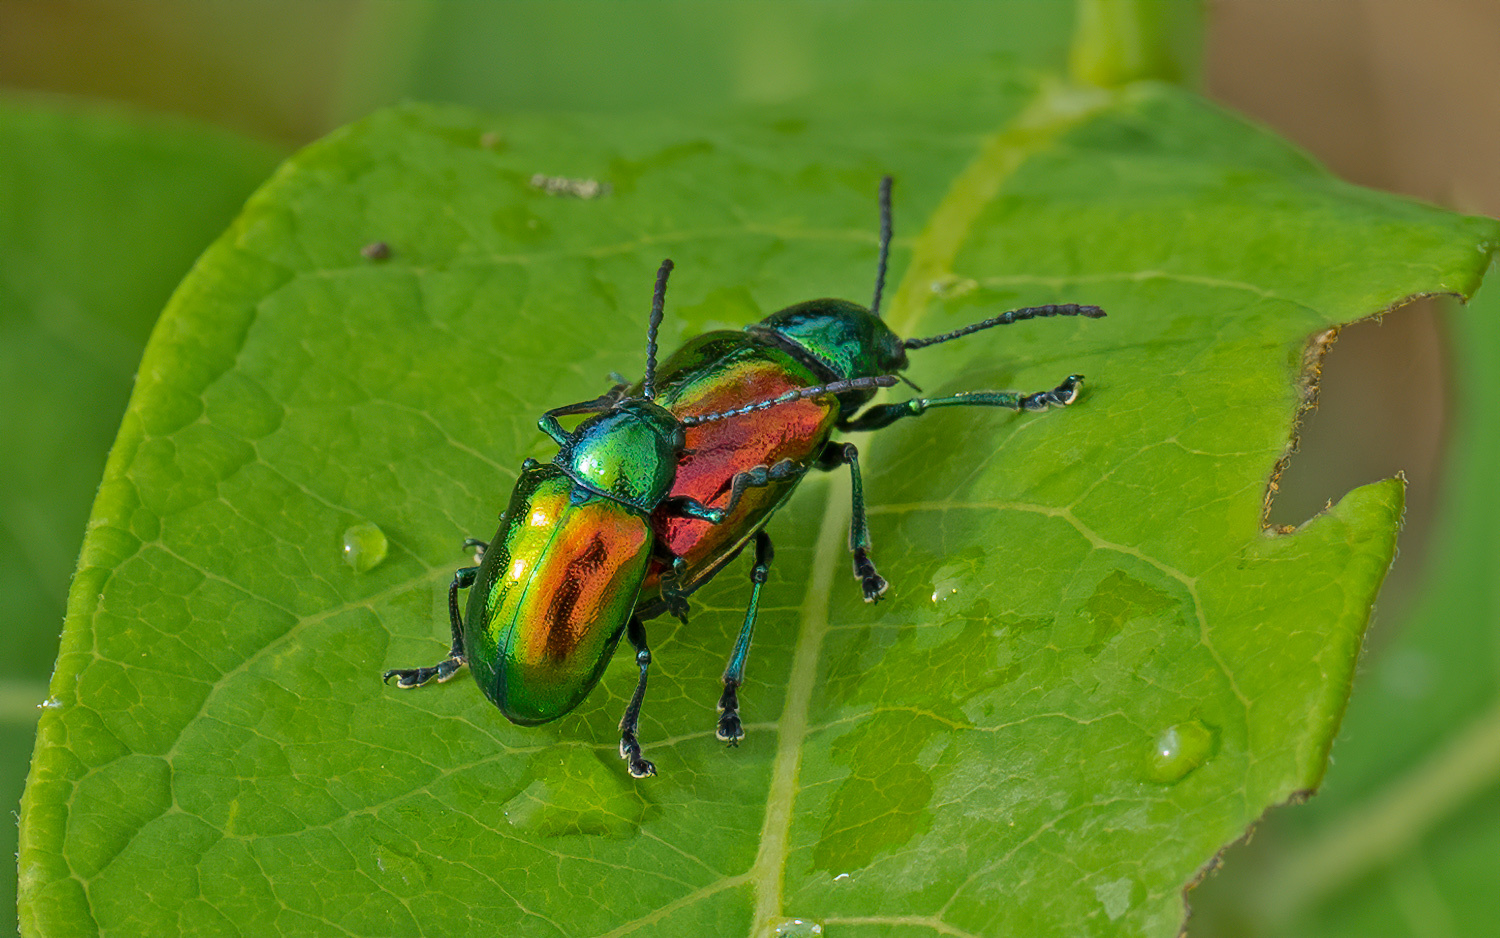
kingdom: Animalia
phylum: Arthropoda
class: Insecta
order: Coleoptera
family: Chrysomelidae
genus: Chrysochus
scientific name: Chrysochus auratus
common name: Dogbane leaf beetle
